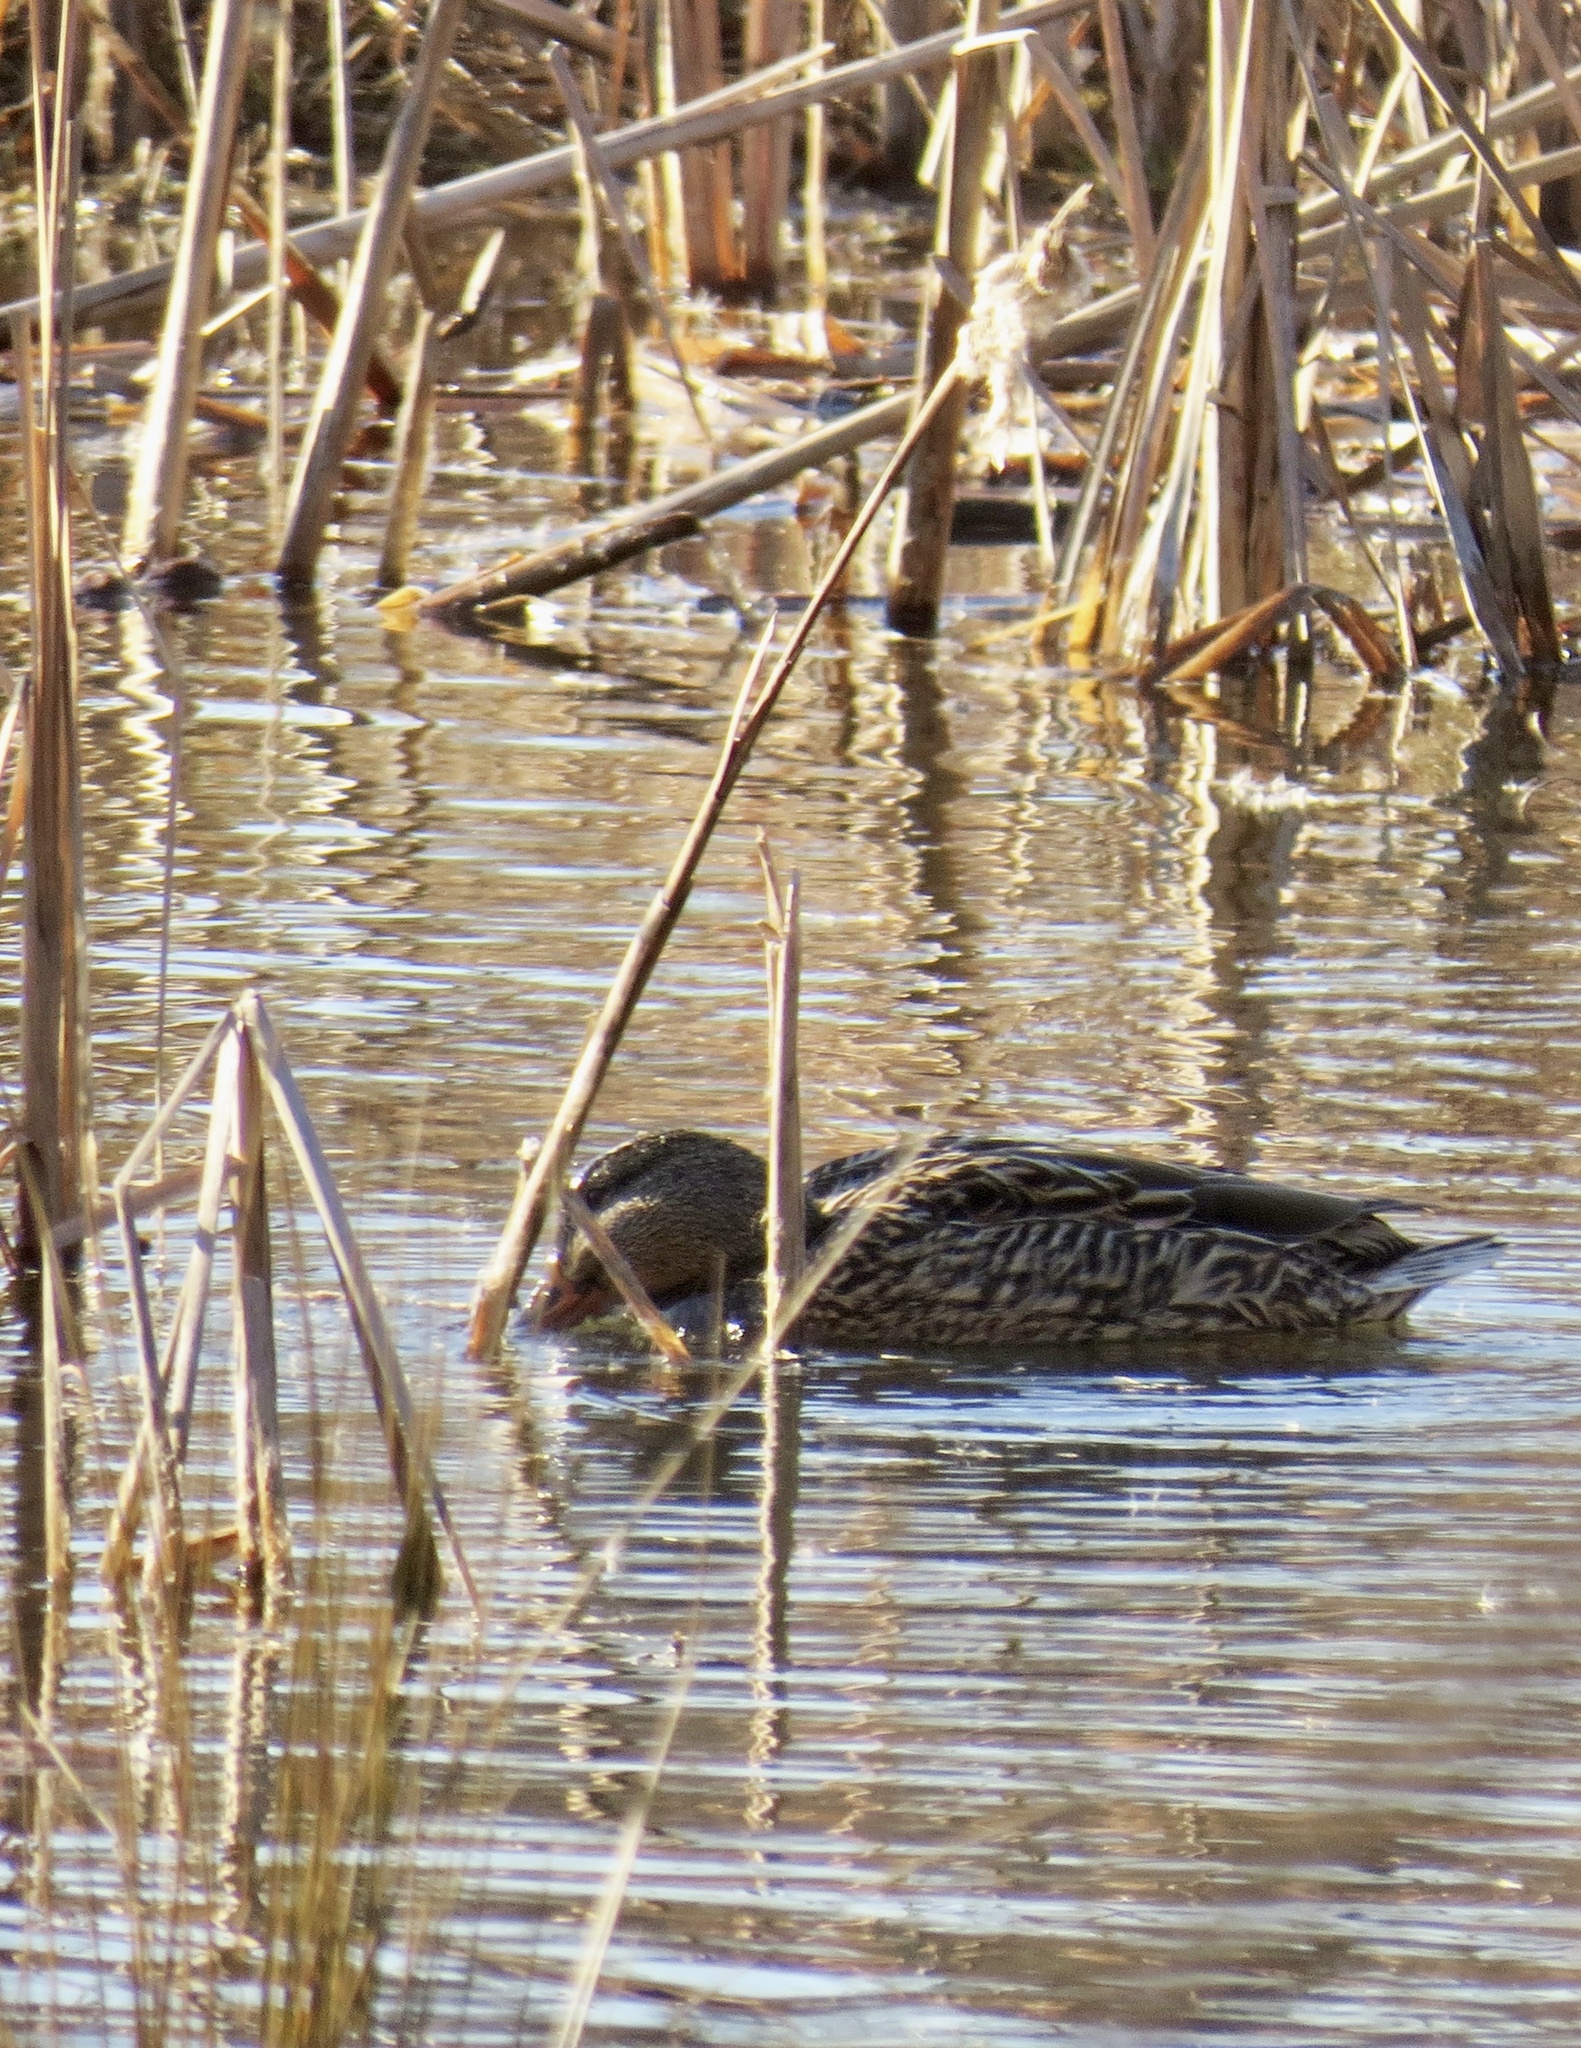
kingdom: Animalia
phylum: Chordata
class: Aves
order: Anseriformes
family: Anatidae
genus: Anas
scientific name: Anas platyrhynchos
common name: Mallard
